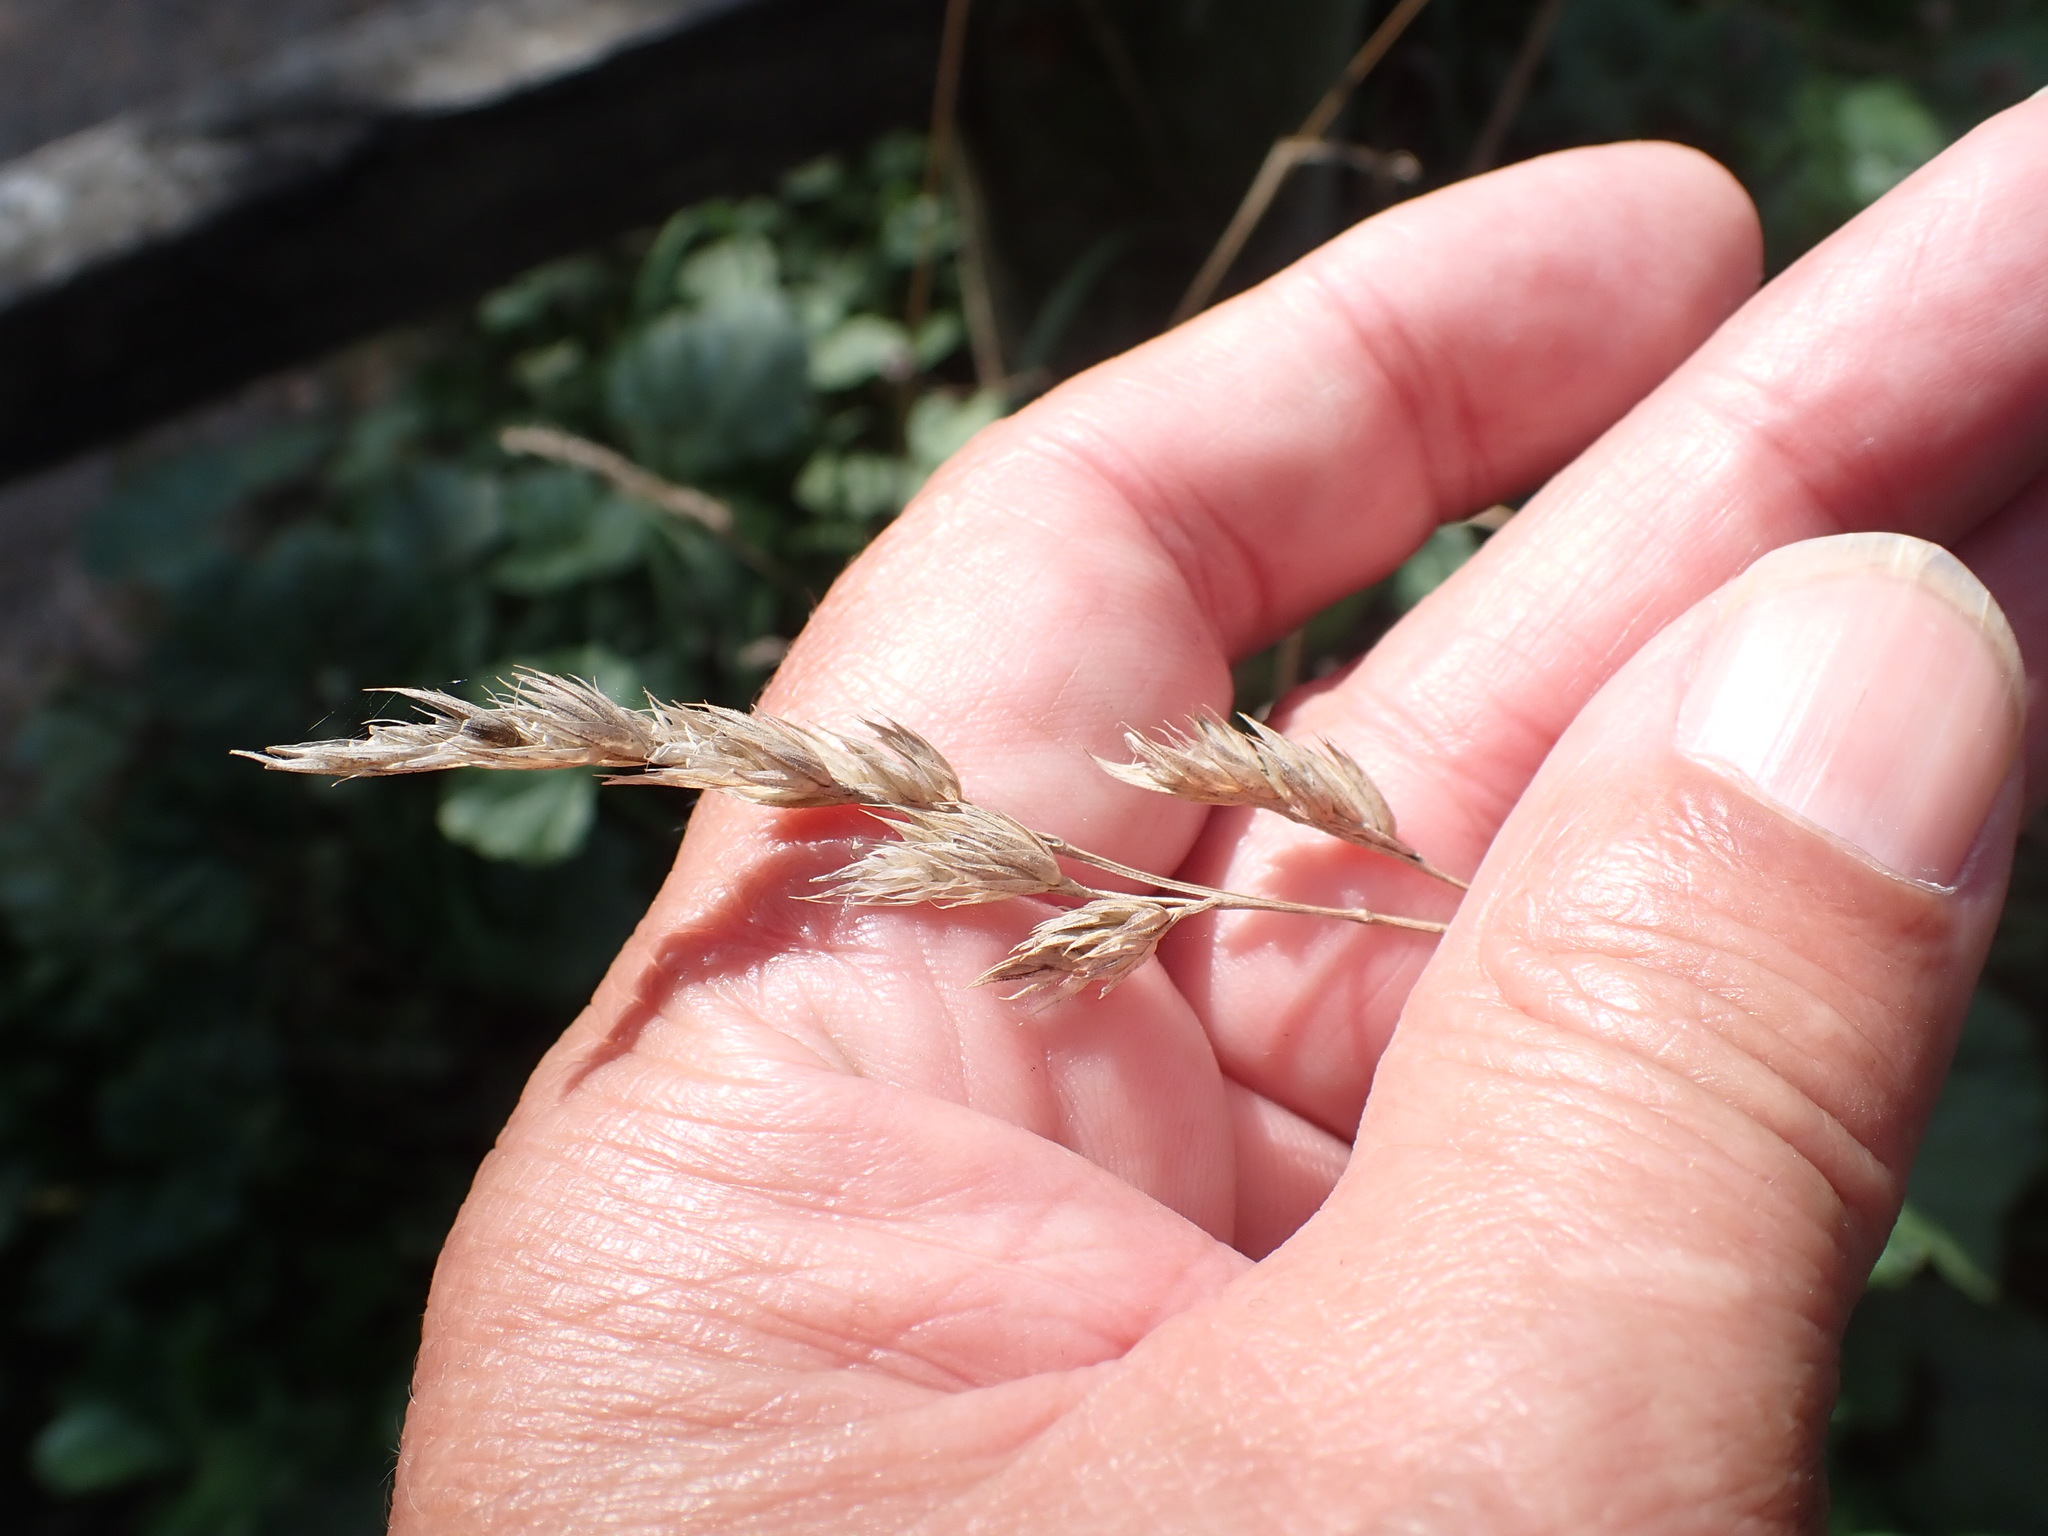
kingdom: Plantae
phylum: Tracheophyta
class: Liliopsida
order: Poales
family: Poaceae
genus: Dactylis
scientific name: Dactylis glomerata
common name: Orchardgrass
